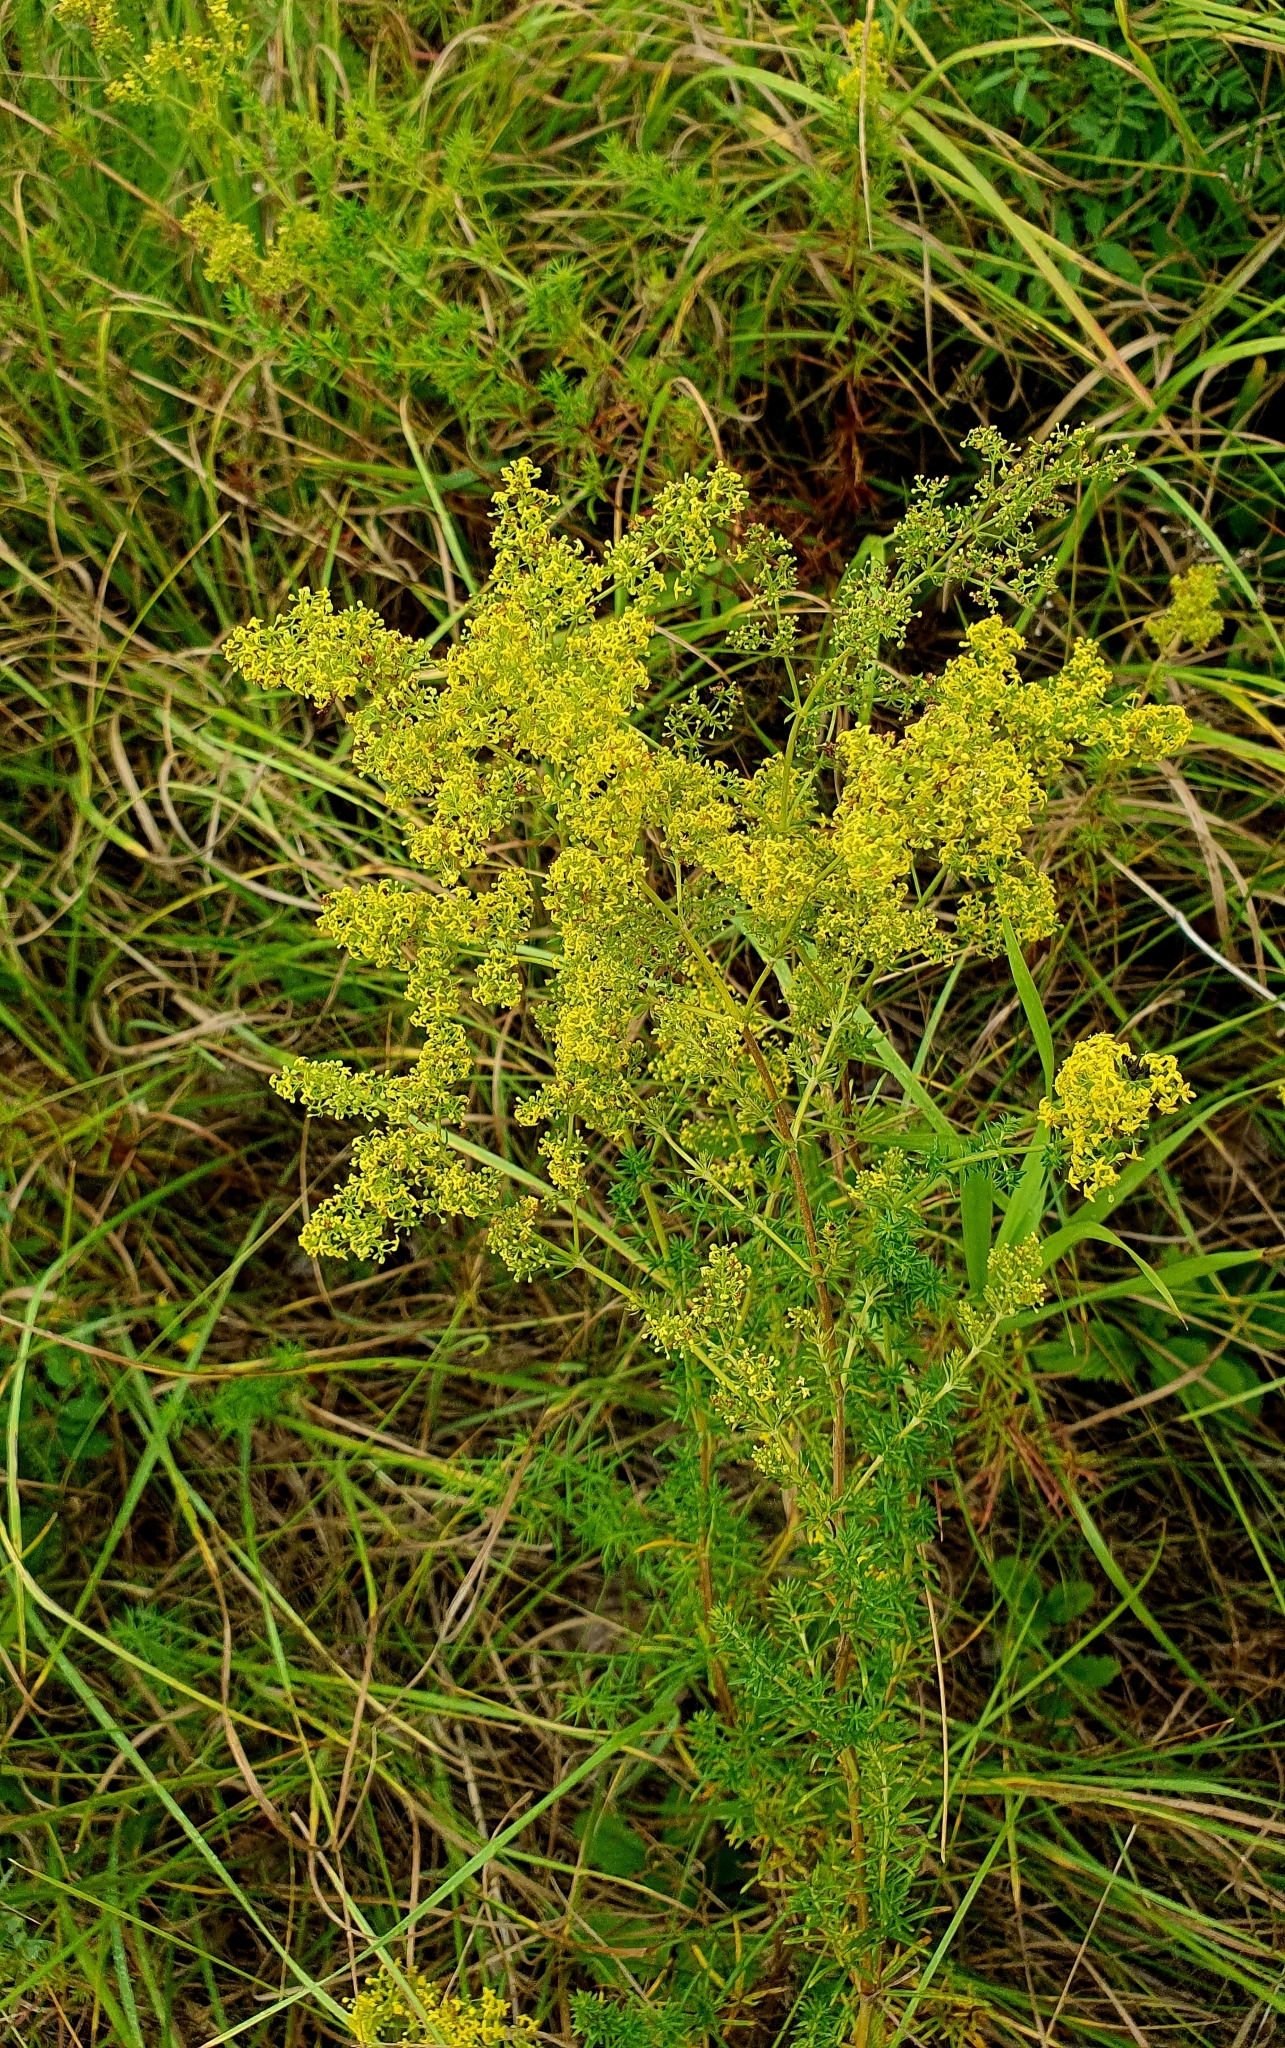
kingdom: Plantae
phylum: Tracheophyta
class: Magnoliopsida
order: Gentianales
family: Rubiaceae
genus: Galium
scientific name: Galium verum
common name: Lady's bedstraw
